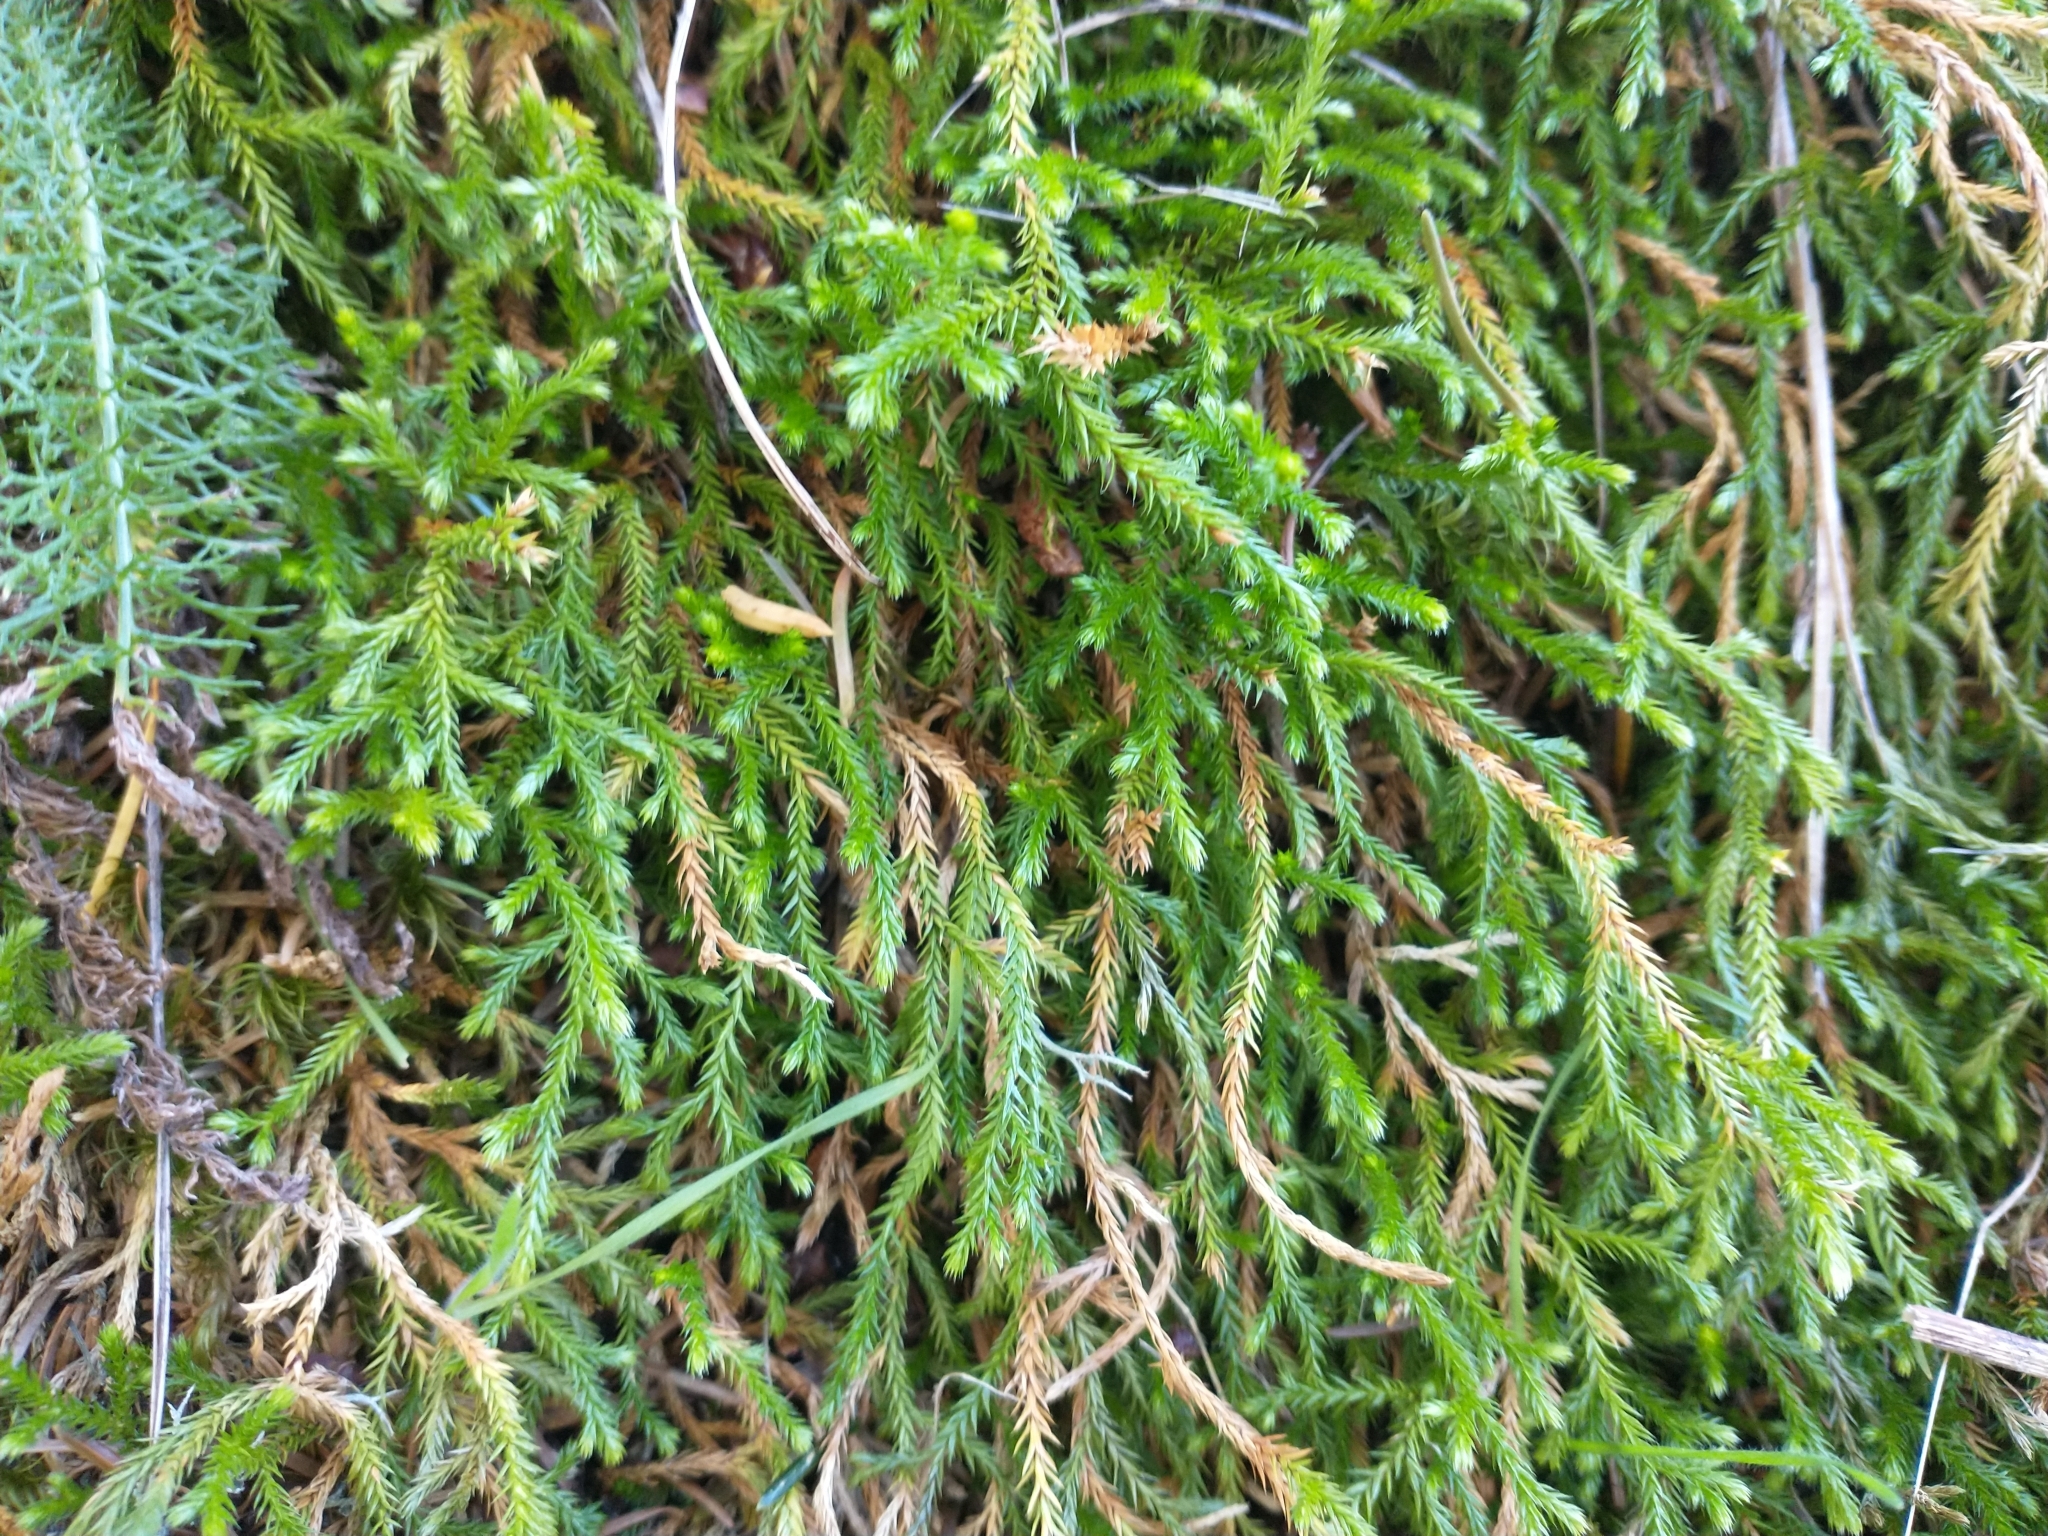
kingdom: Plantae
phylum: Tracheophyta
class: Lycopodiopsida
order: Selaginellales
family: Selaginellaceae
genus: Selaginella
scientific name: Selaginella oregana
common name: Oregon selaginella
